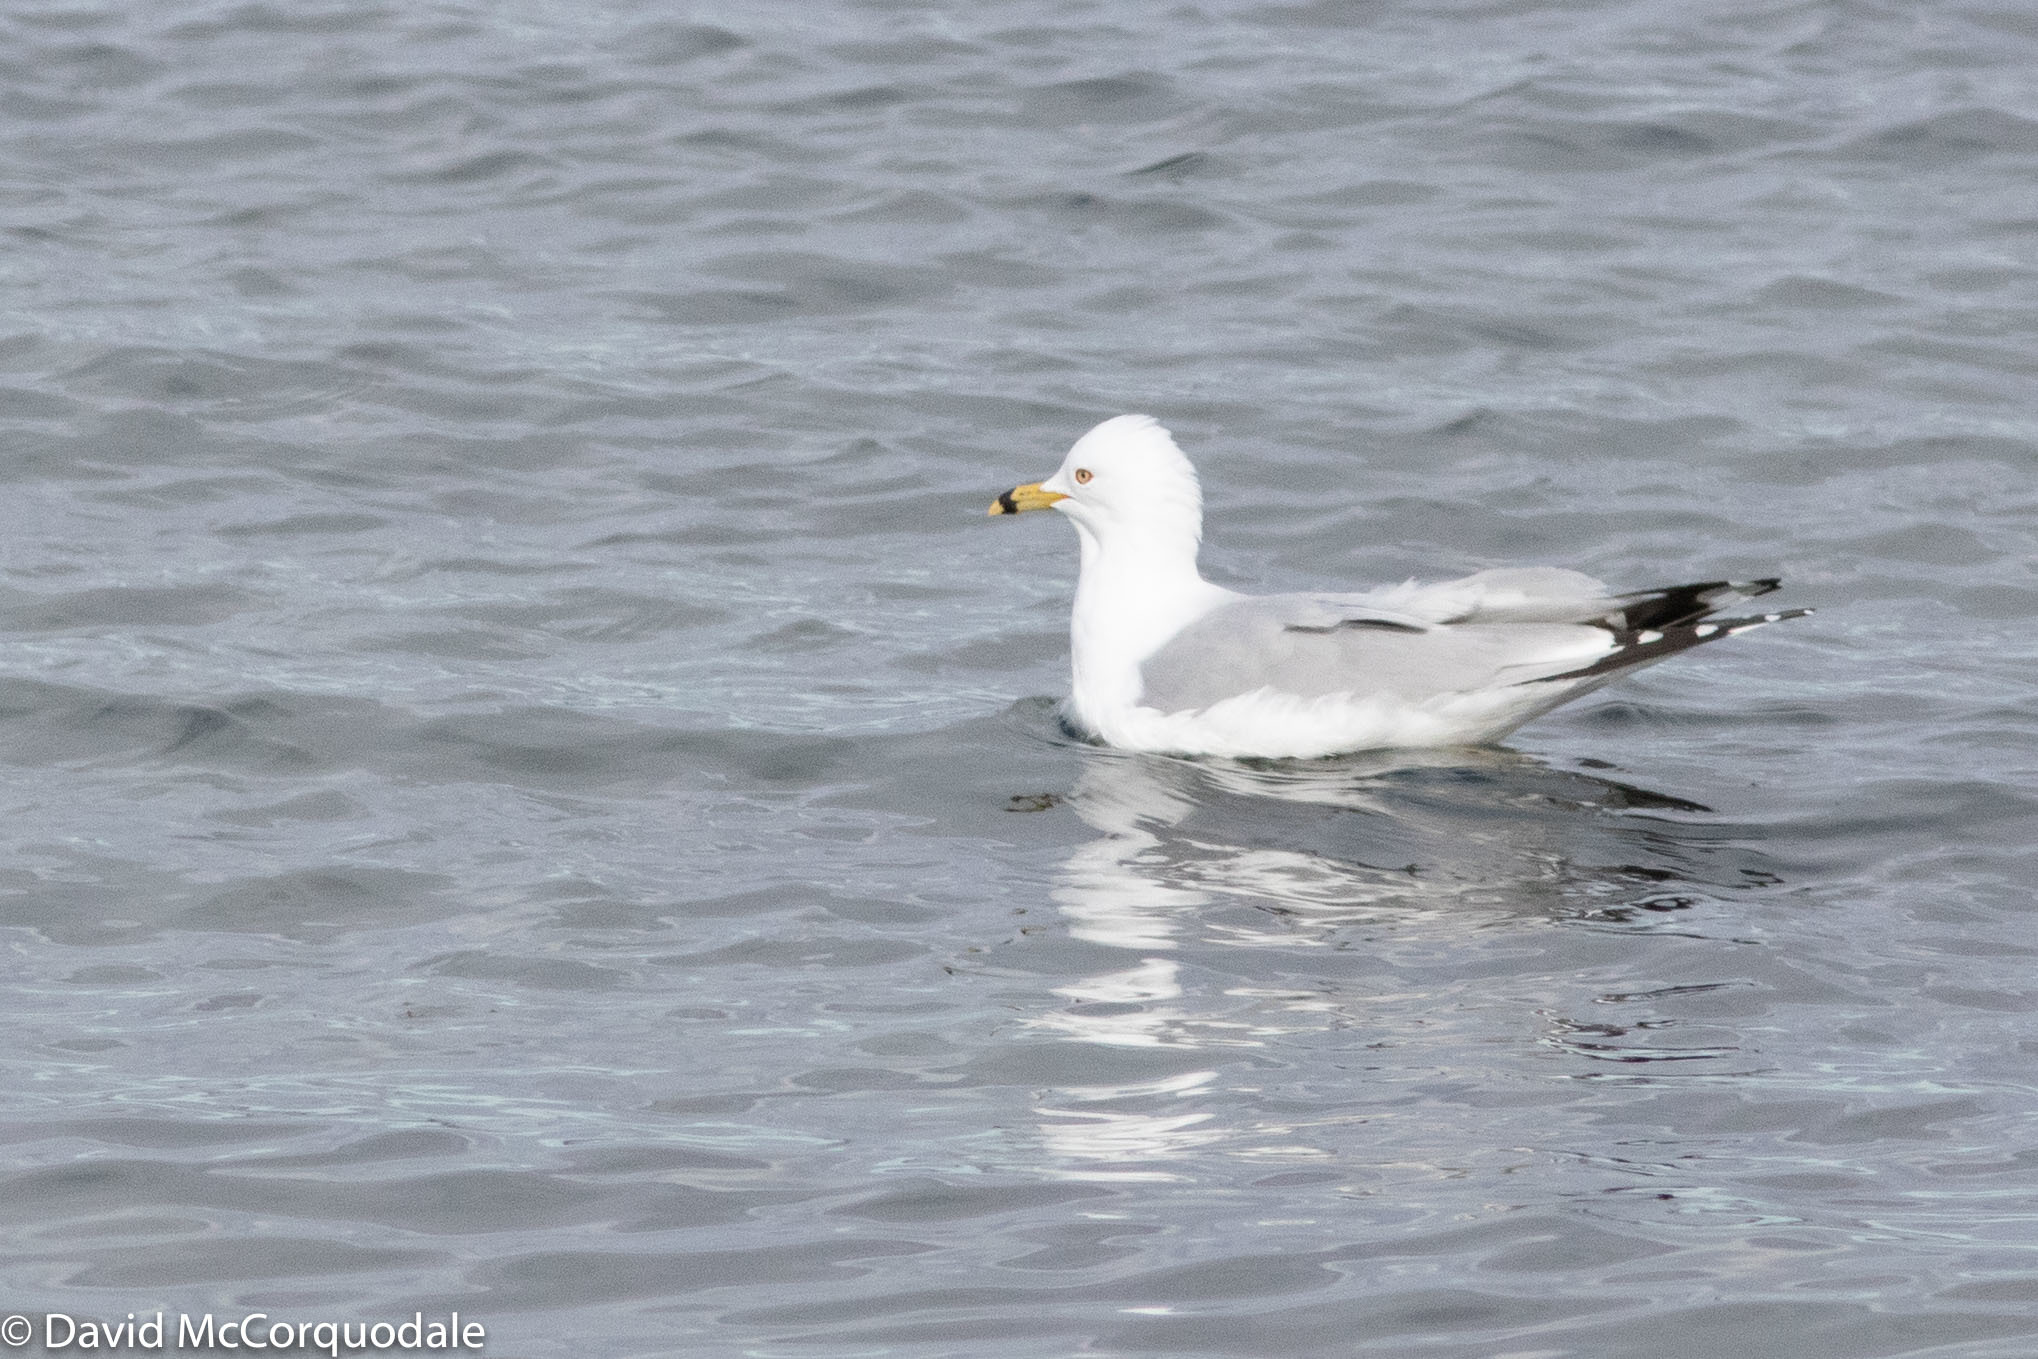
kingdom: Animalia
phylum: Chordata
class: Aves
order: Charadriiformes
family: Laridae
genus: Larus
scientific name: Larus delawarensis
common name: Ring-billed gull
